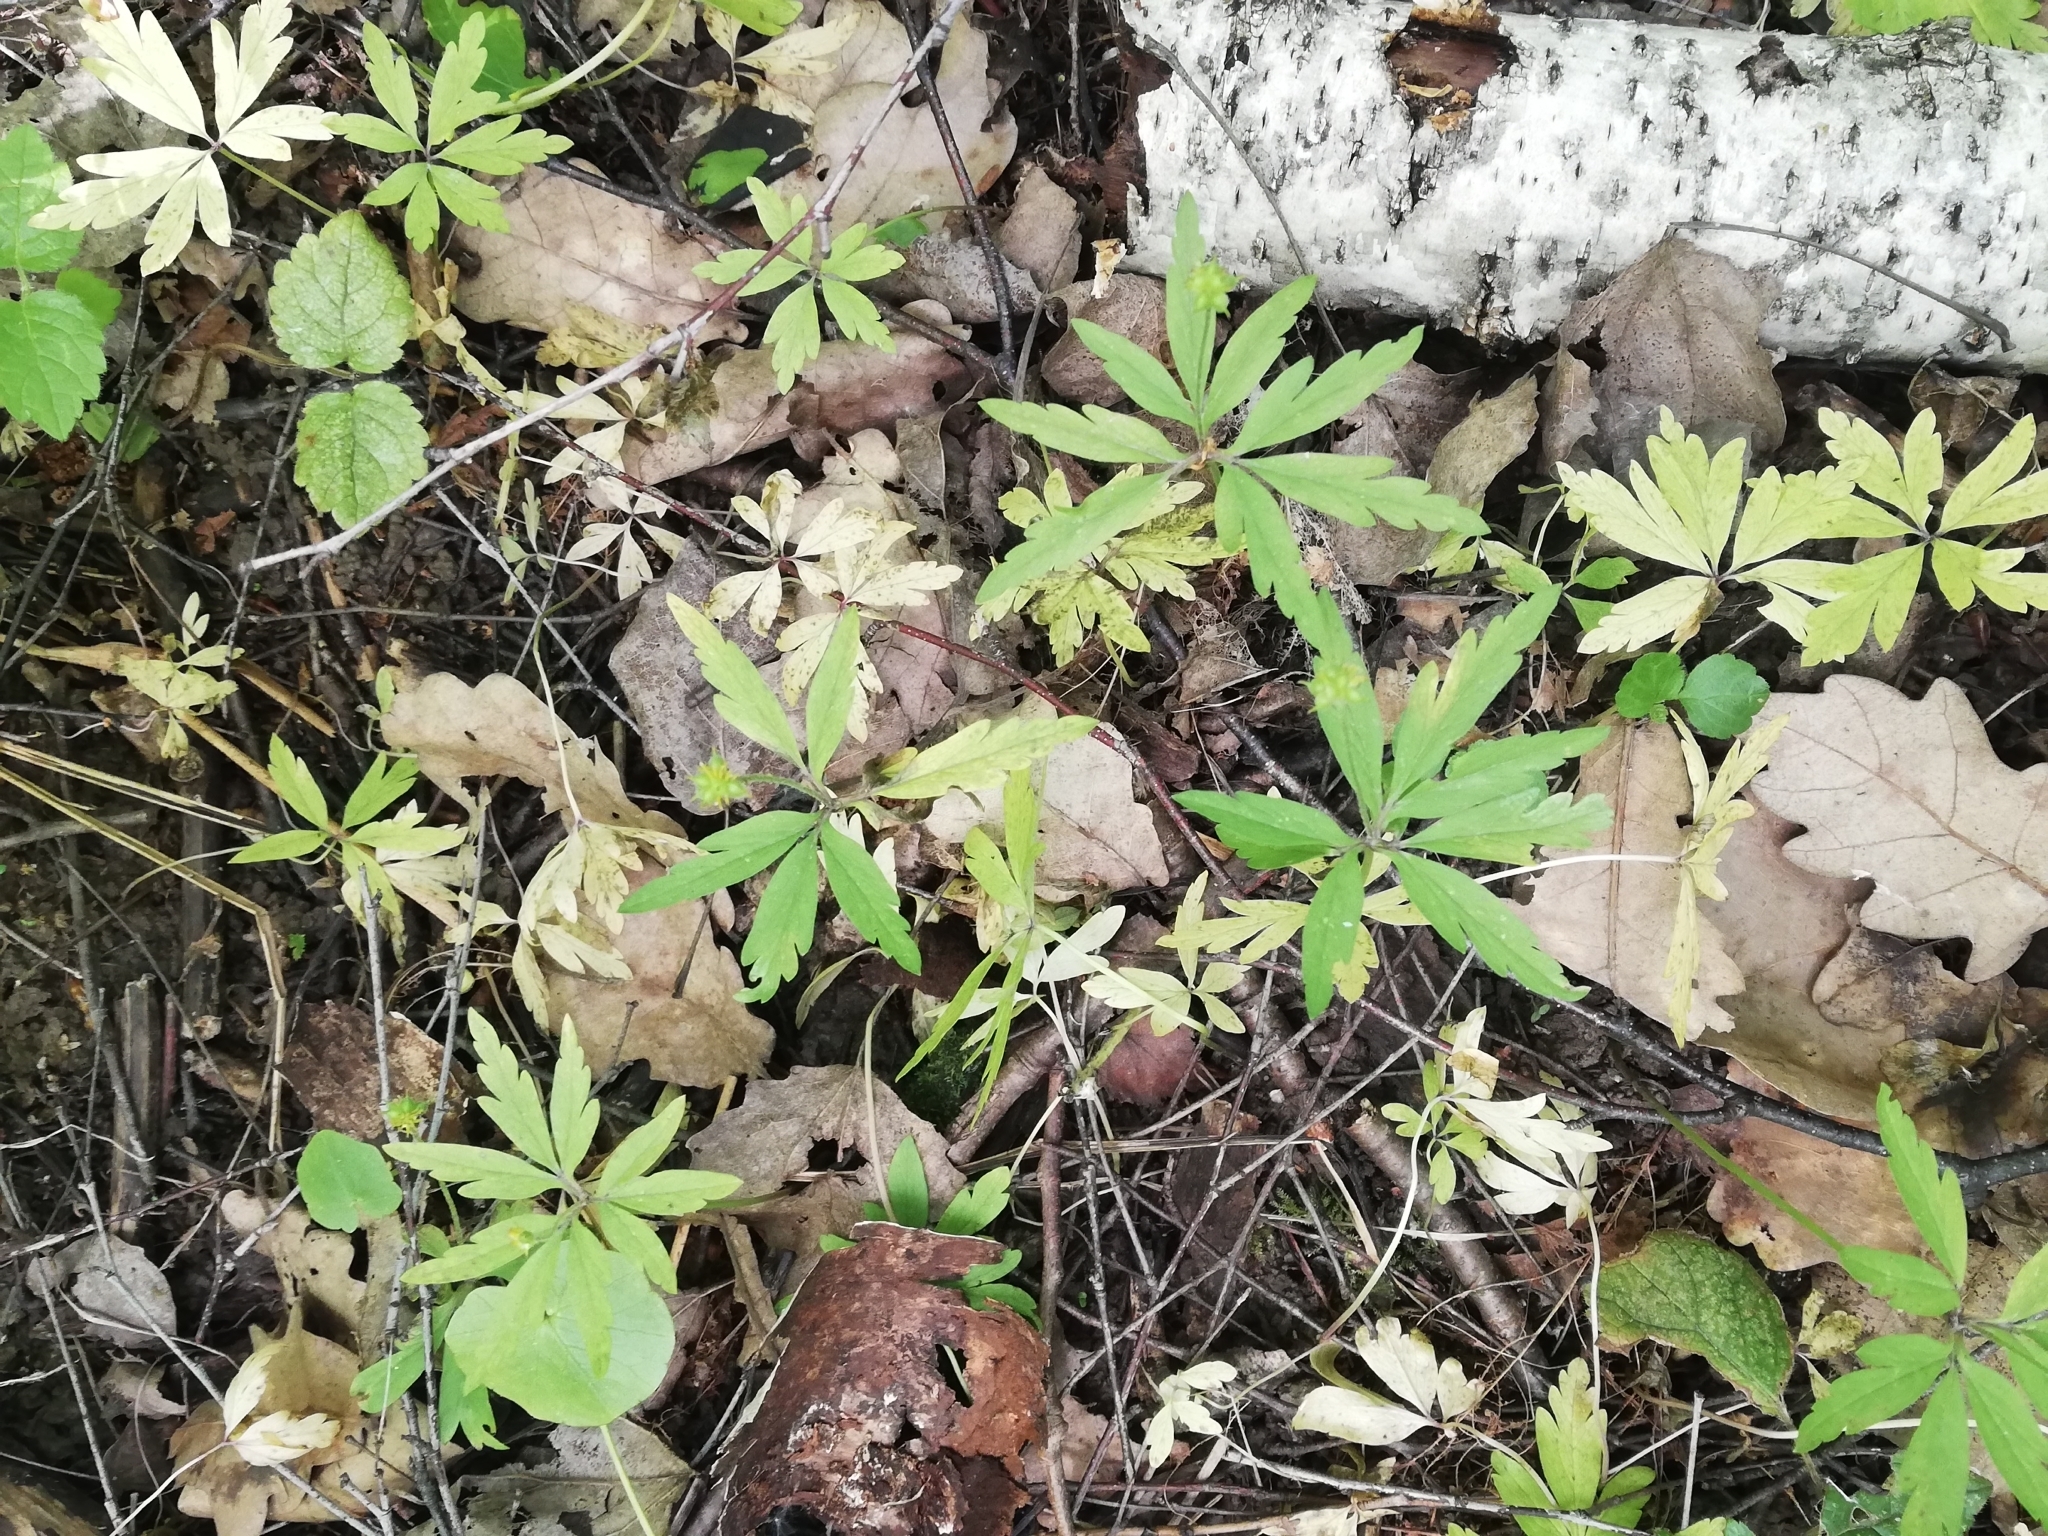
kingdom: Plantae
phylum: Tracheophyta
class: Magnoliopsida
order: Ranunculales
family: Ranunculaceae
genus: Anemone
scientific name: Anemone ranunculoides
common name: Yellow anemone
